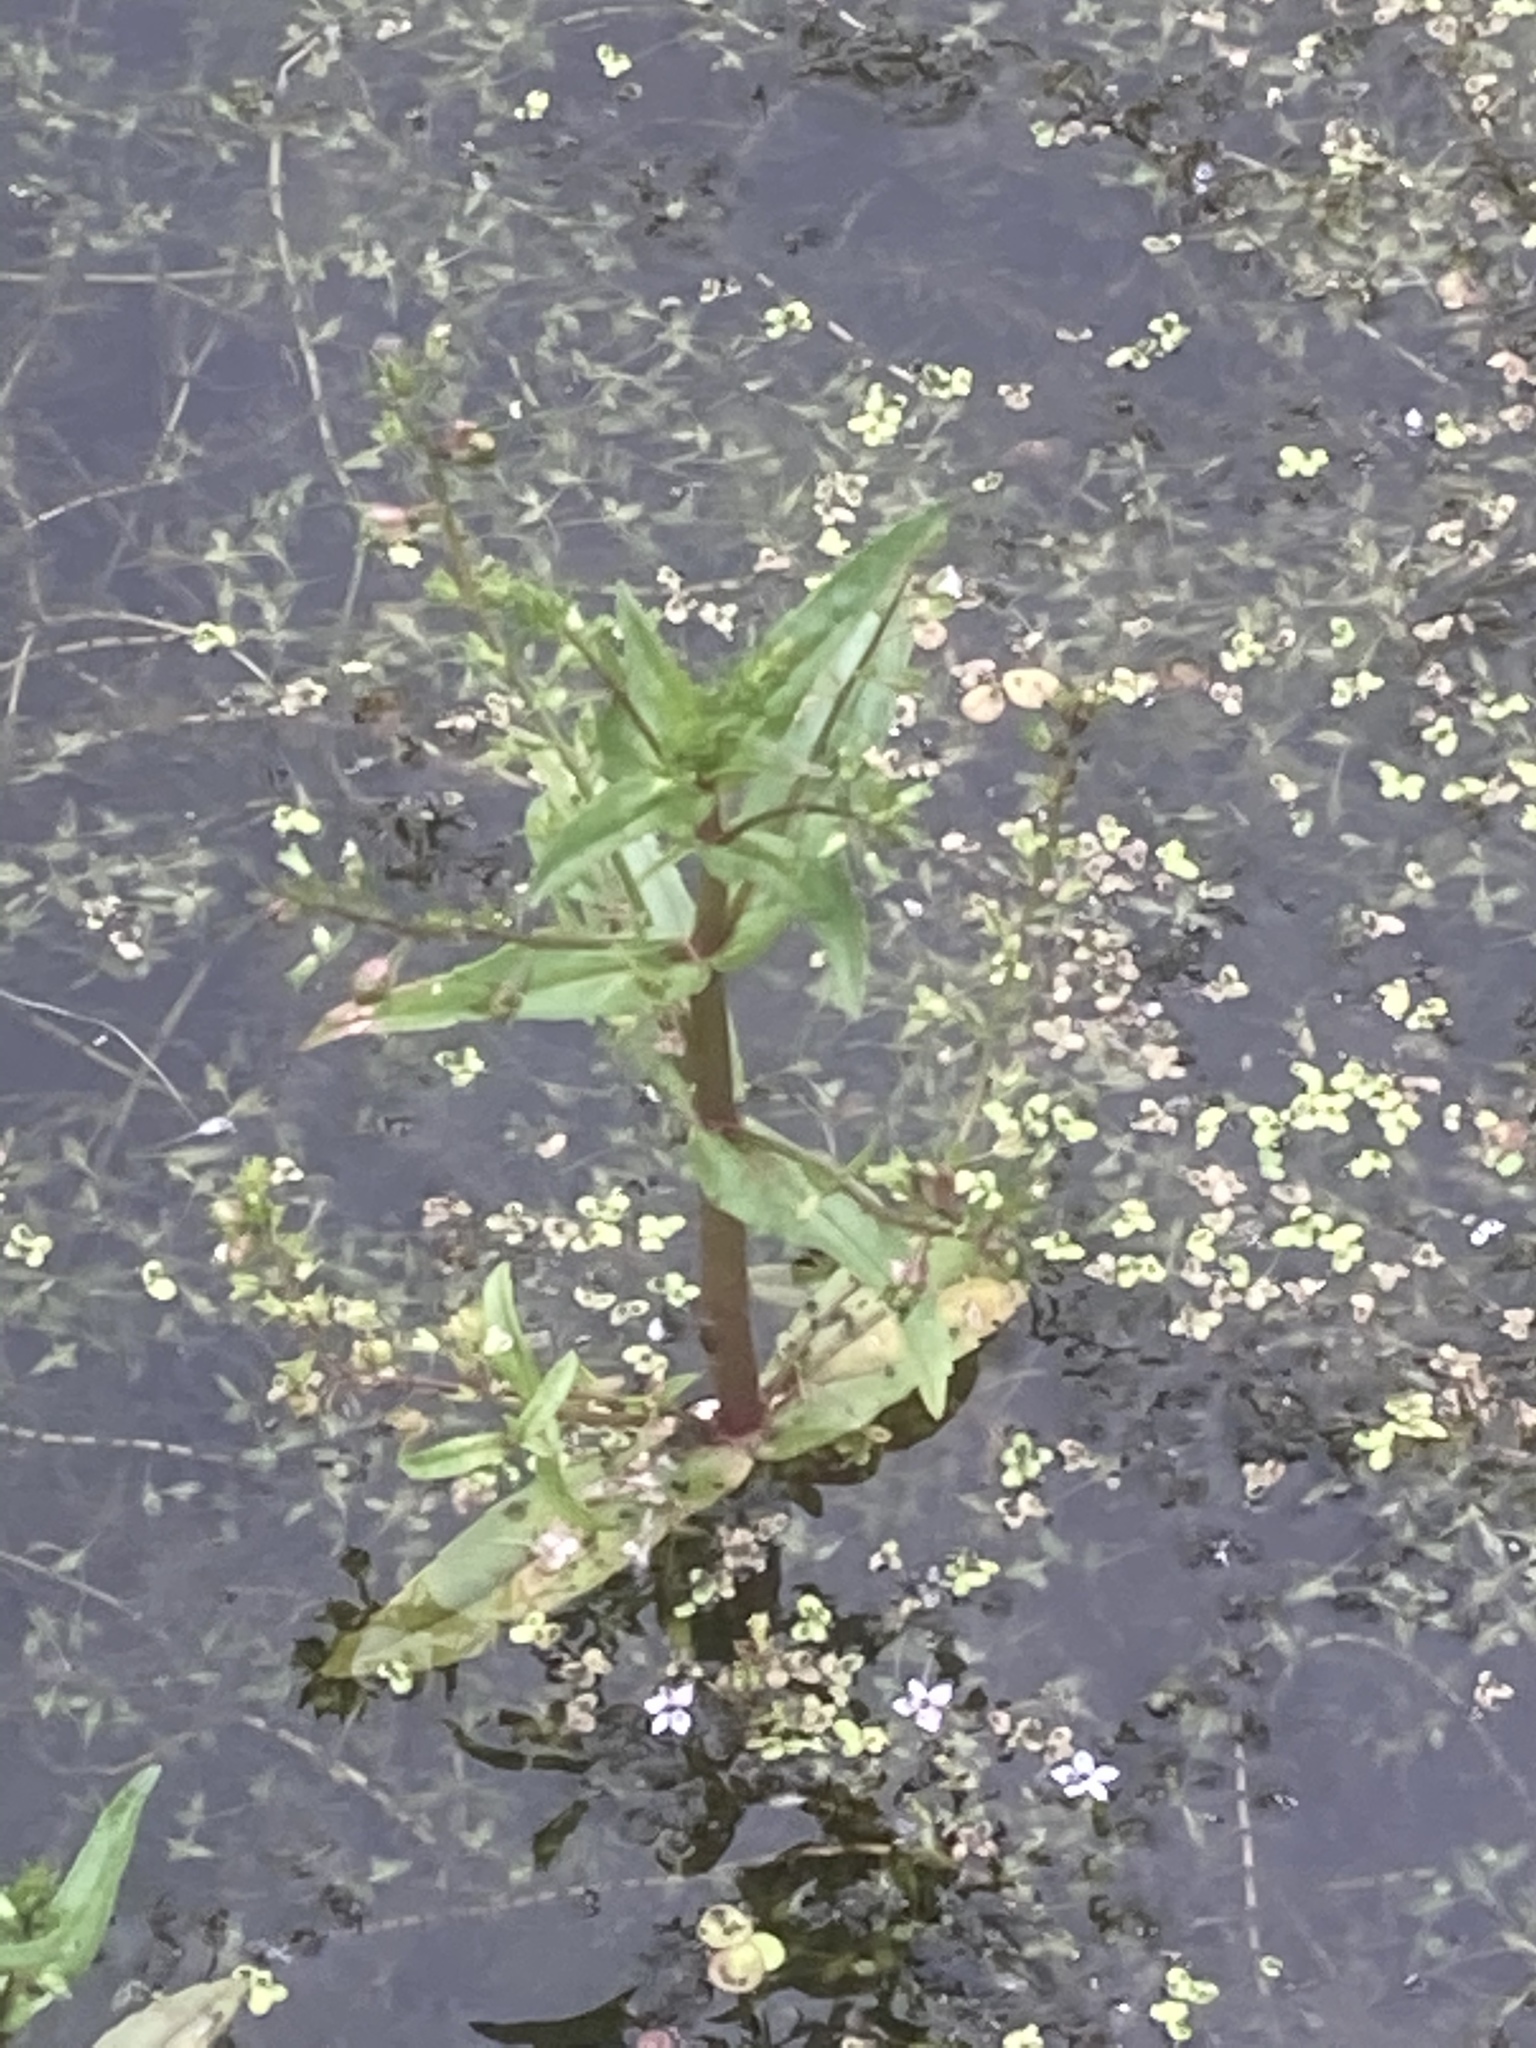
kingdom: Plantae
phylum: Tracheophyta
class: Magnoliopsida
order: Lamiales
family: Plantaginaceae
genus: Veronica
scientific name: Veronica anagallis-aquatica
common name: Water speedwell
